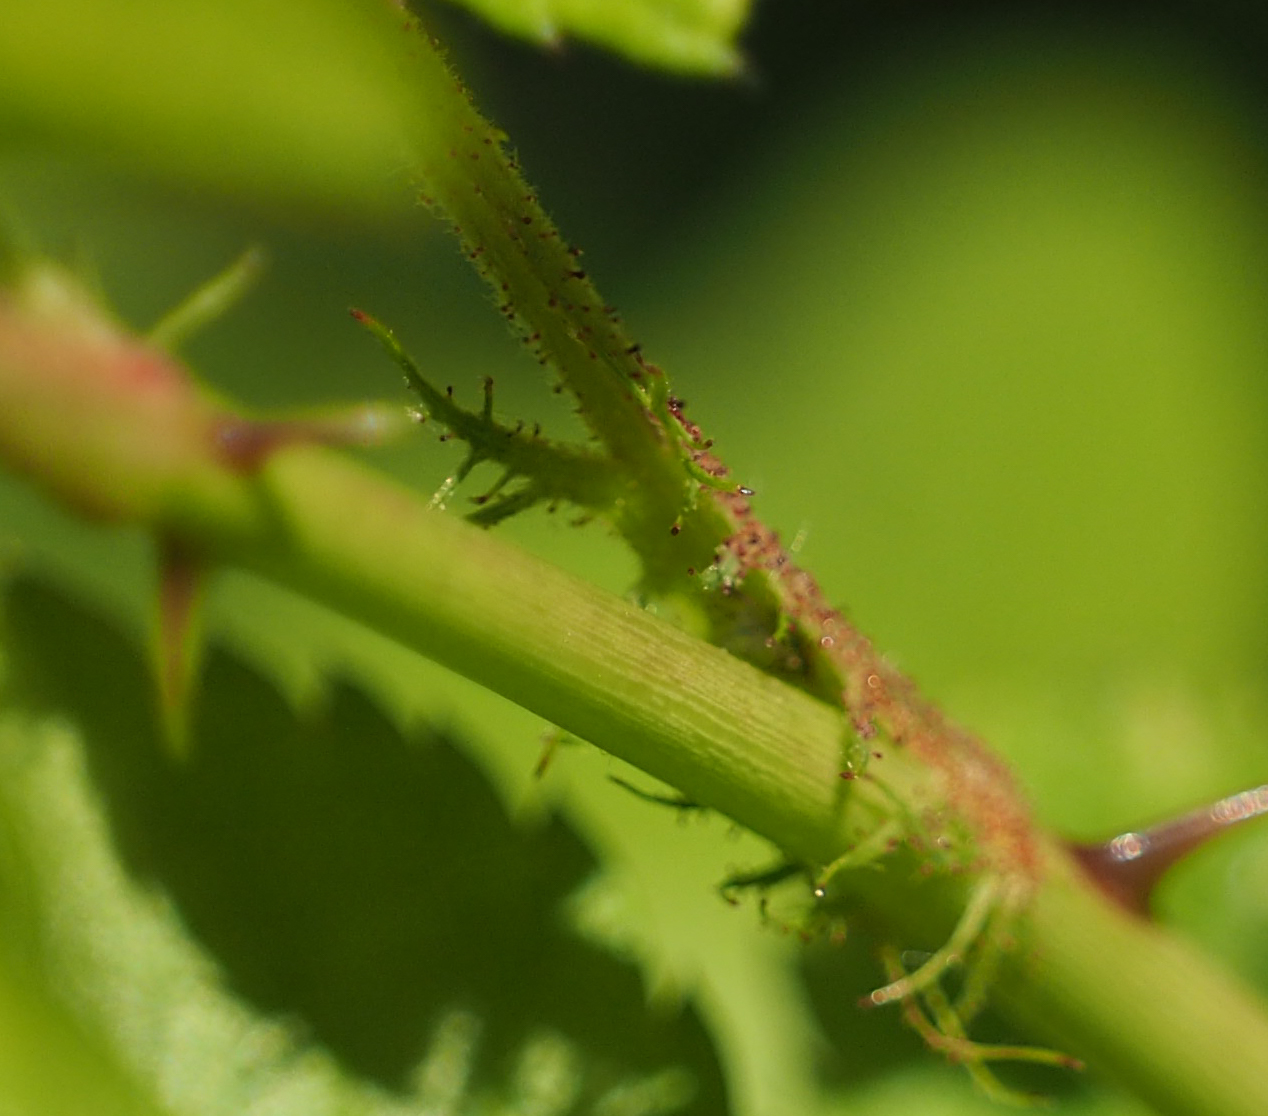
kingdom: Plantae
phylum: Tracheophyta
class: Magnoliopsida
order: Rosales
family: Rosaceae
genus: Rosa
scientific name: Rosa multiflora
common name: Multiflora rose
